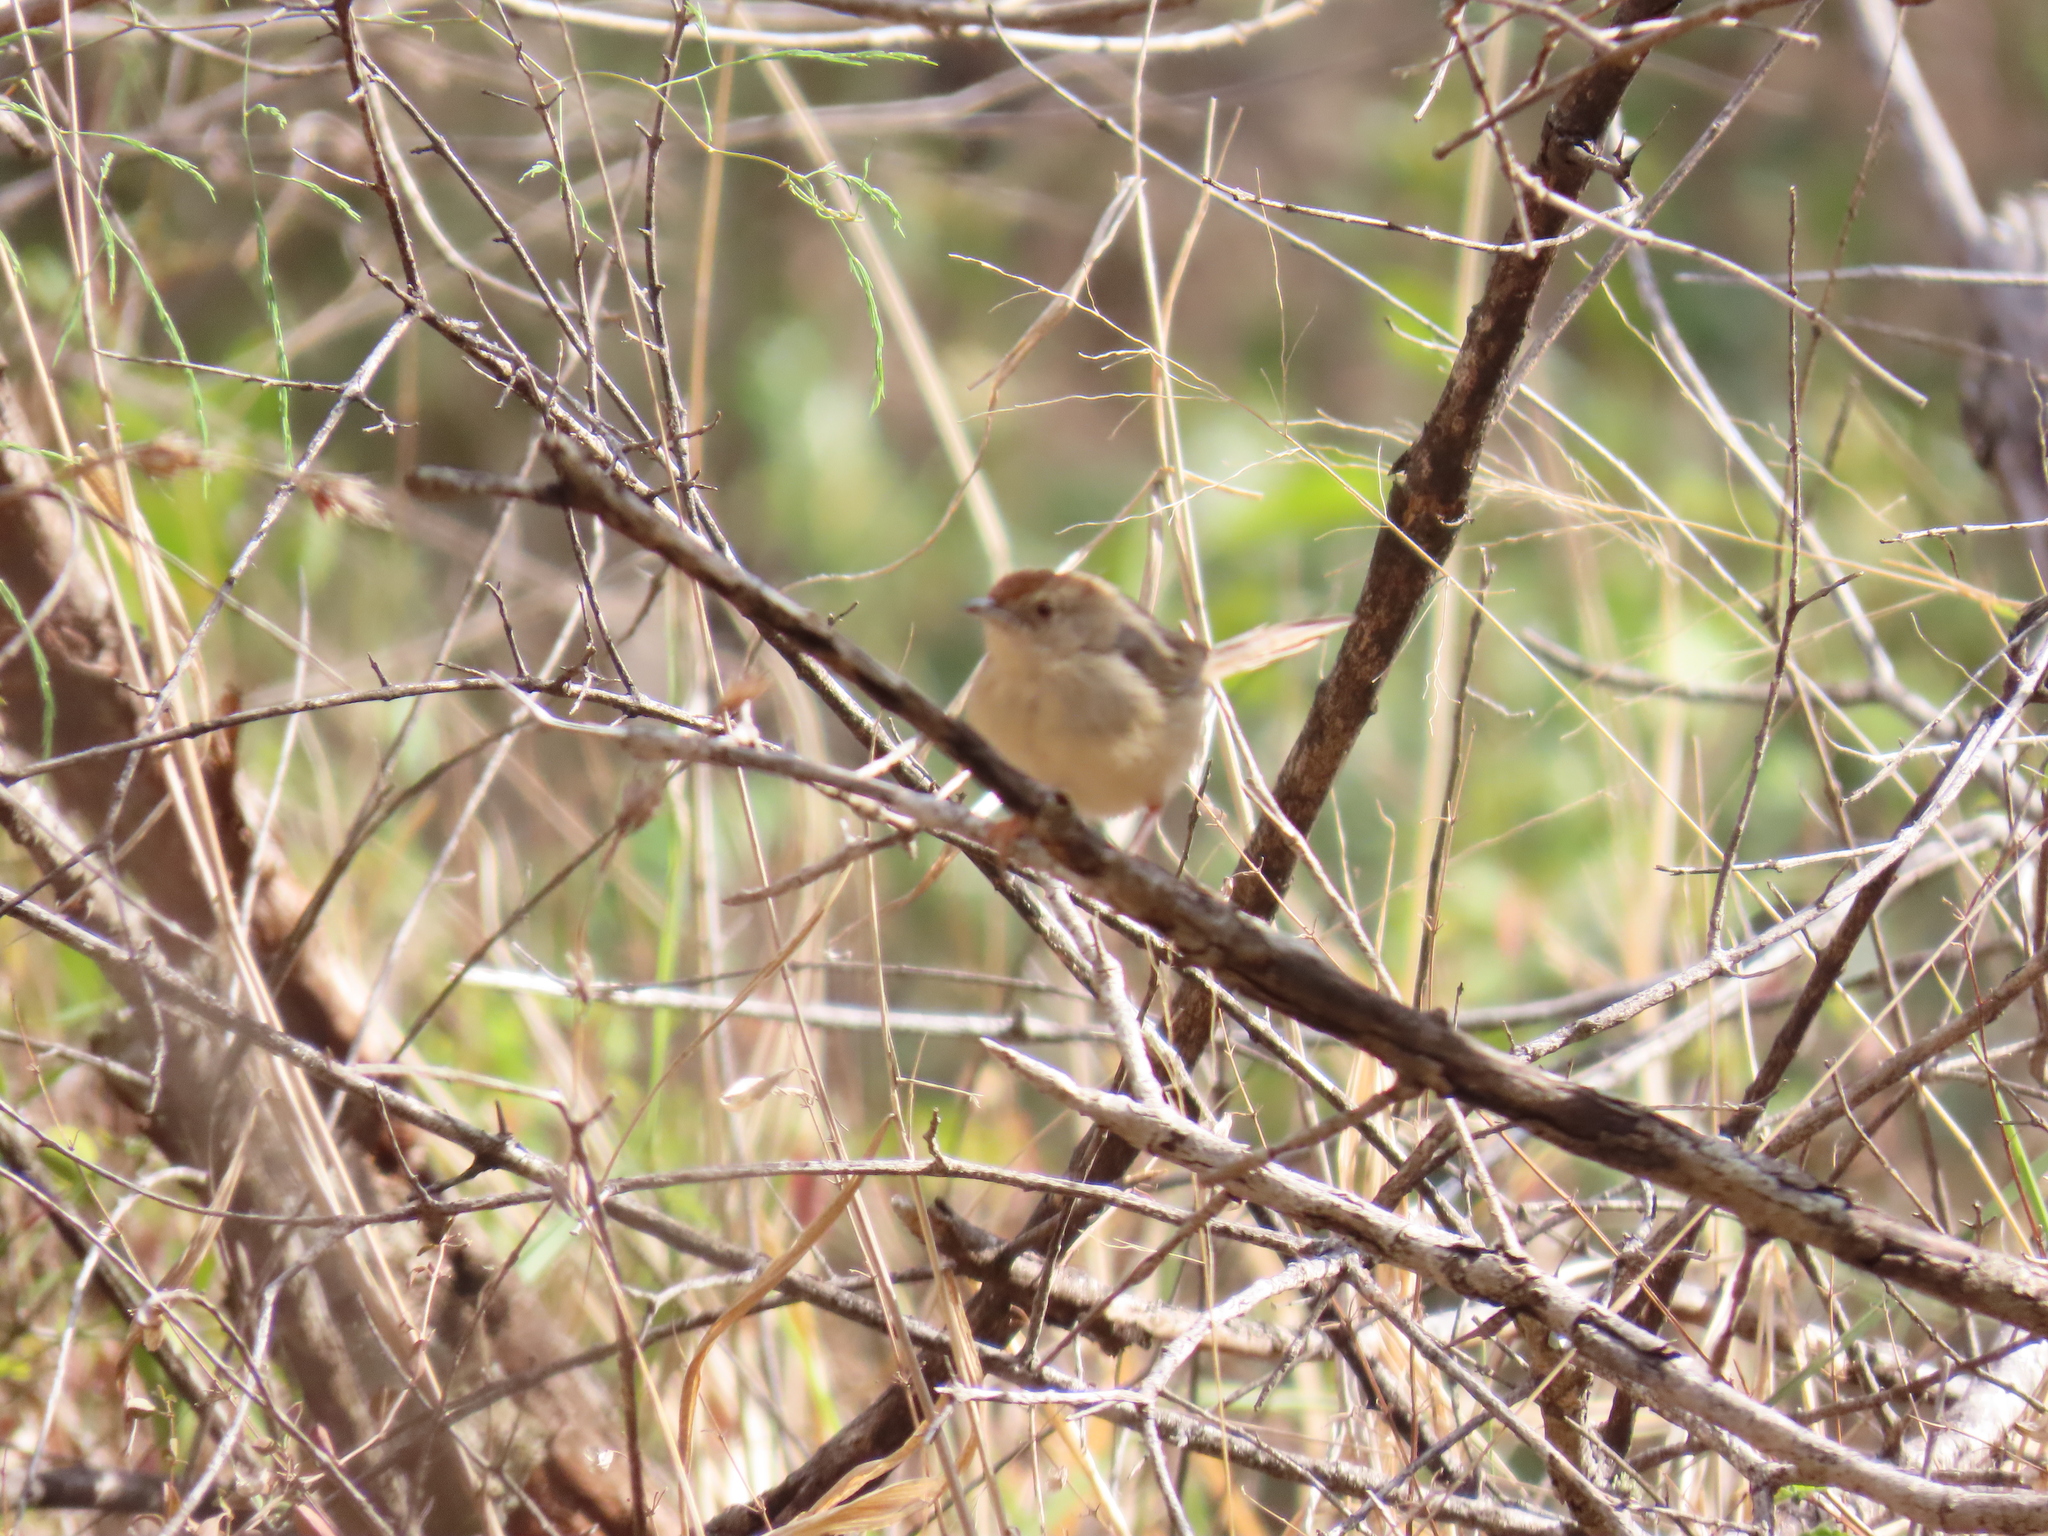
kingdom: Animalia
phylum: Chordata
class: Aves
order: Passeriformes
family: Cisticolidae
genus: Cisticola
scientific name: Cisticola aberrans
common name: Lazy cisticola
